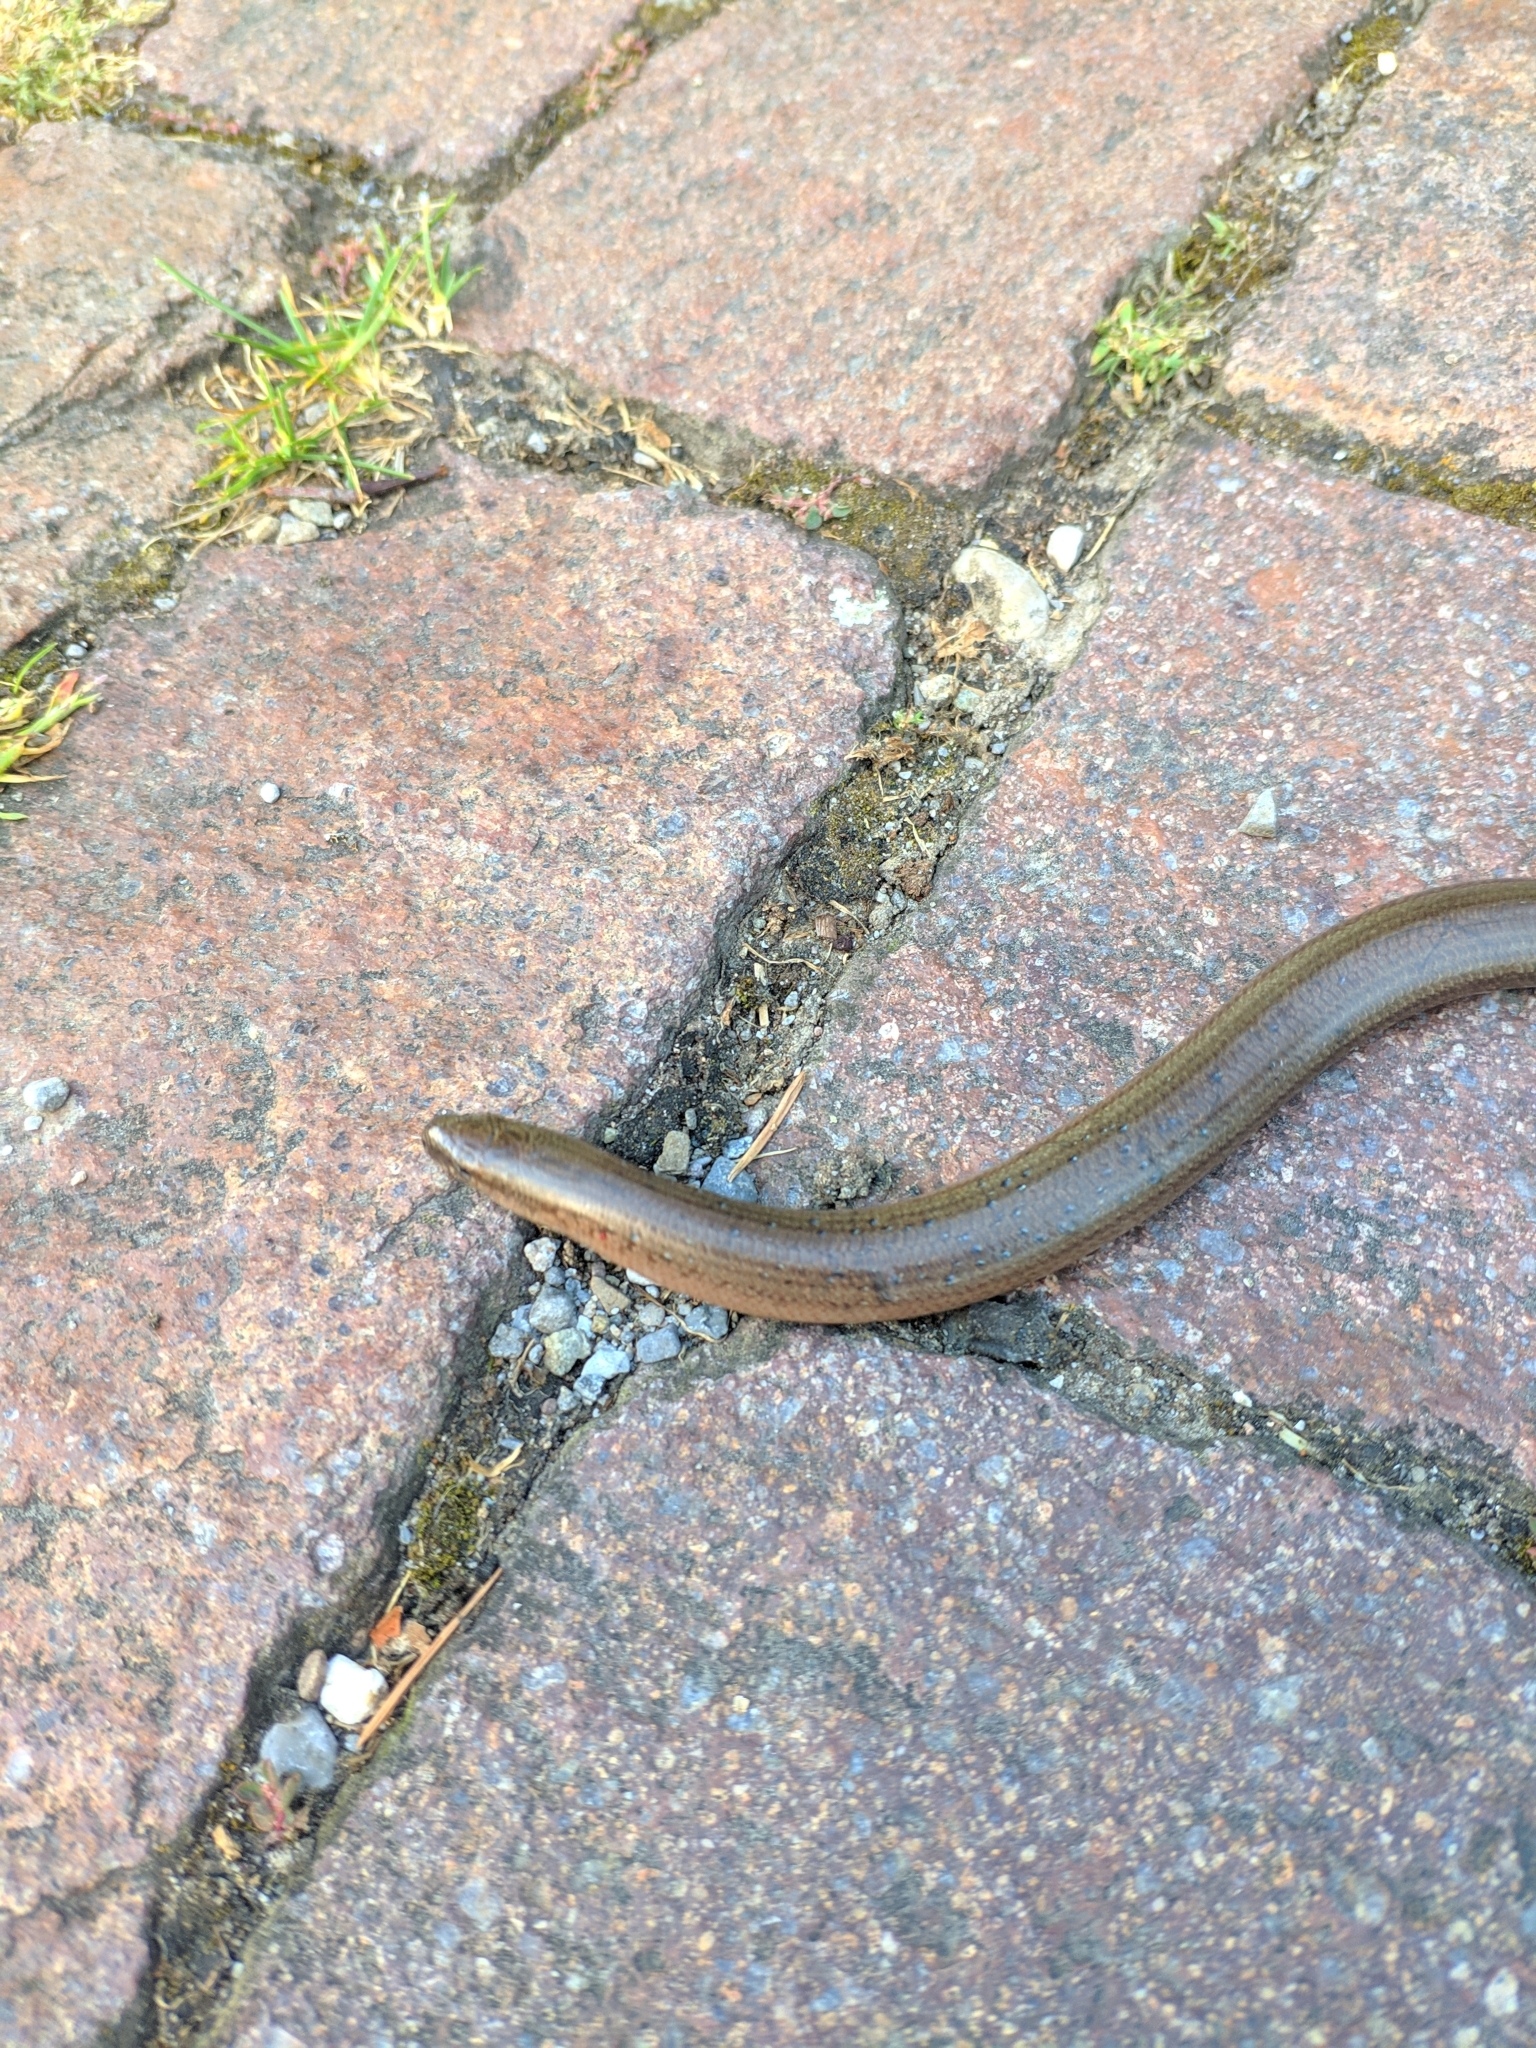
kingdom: Animalia
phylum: Chordata
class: Squamata
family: Anguidae
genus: Anguis
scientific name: Anguis fragilis
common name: Slow worm
